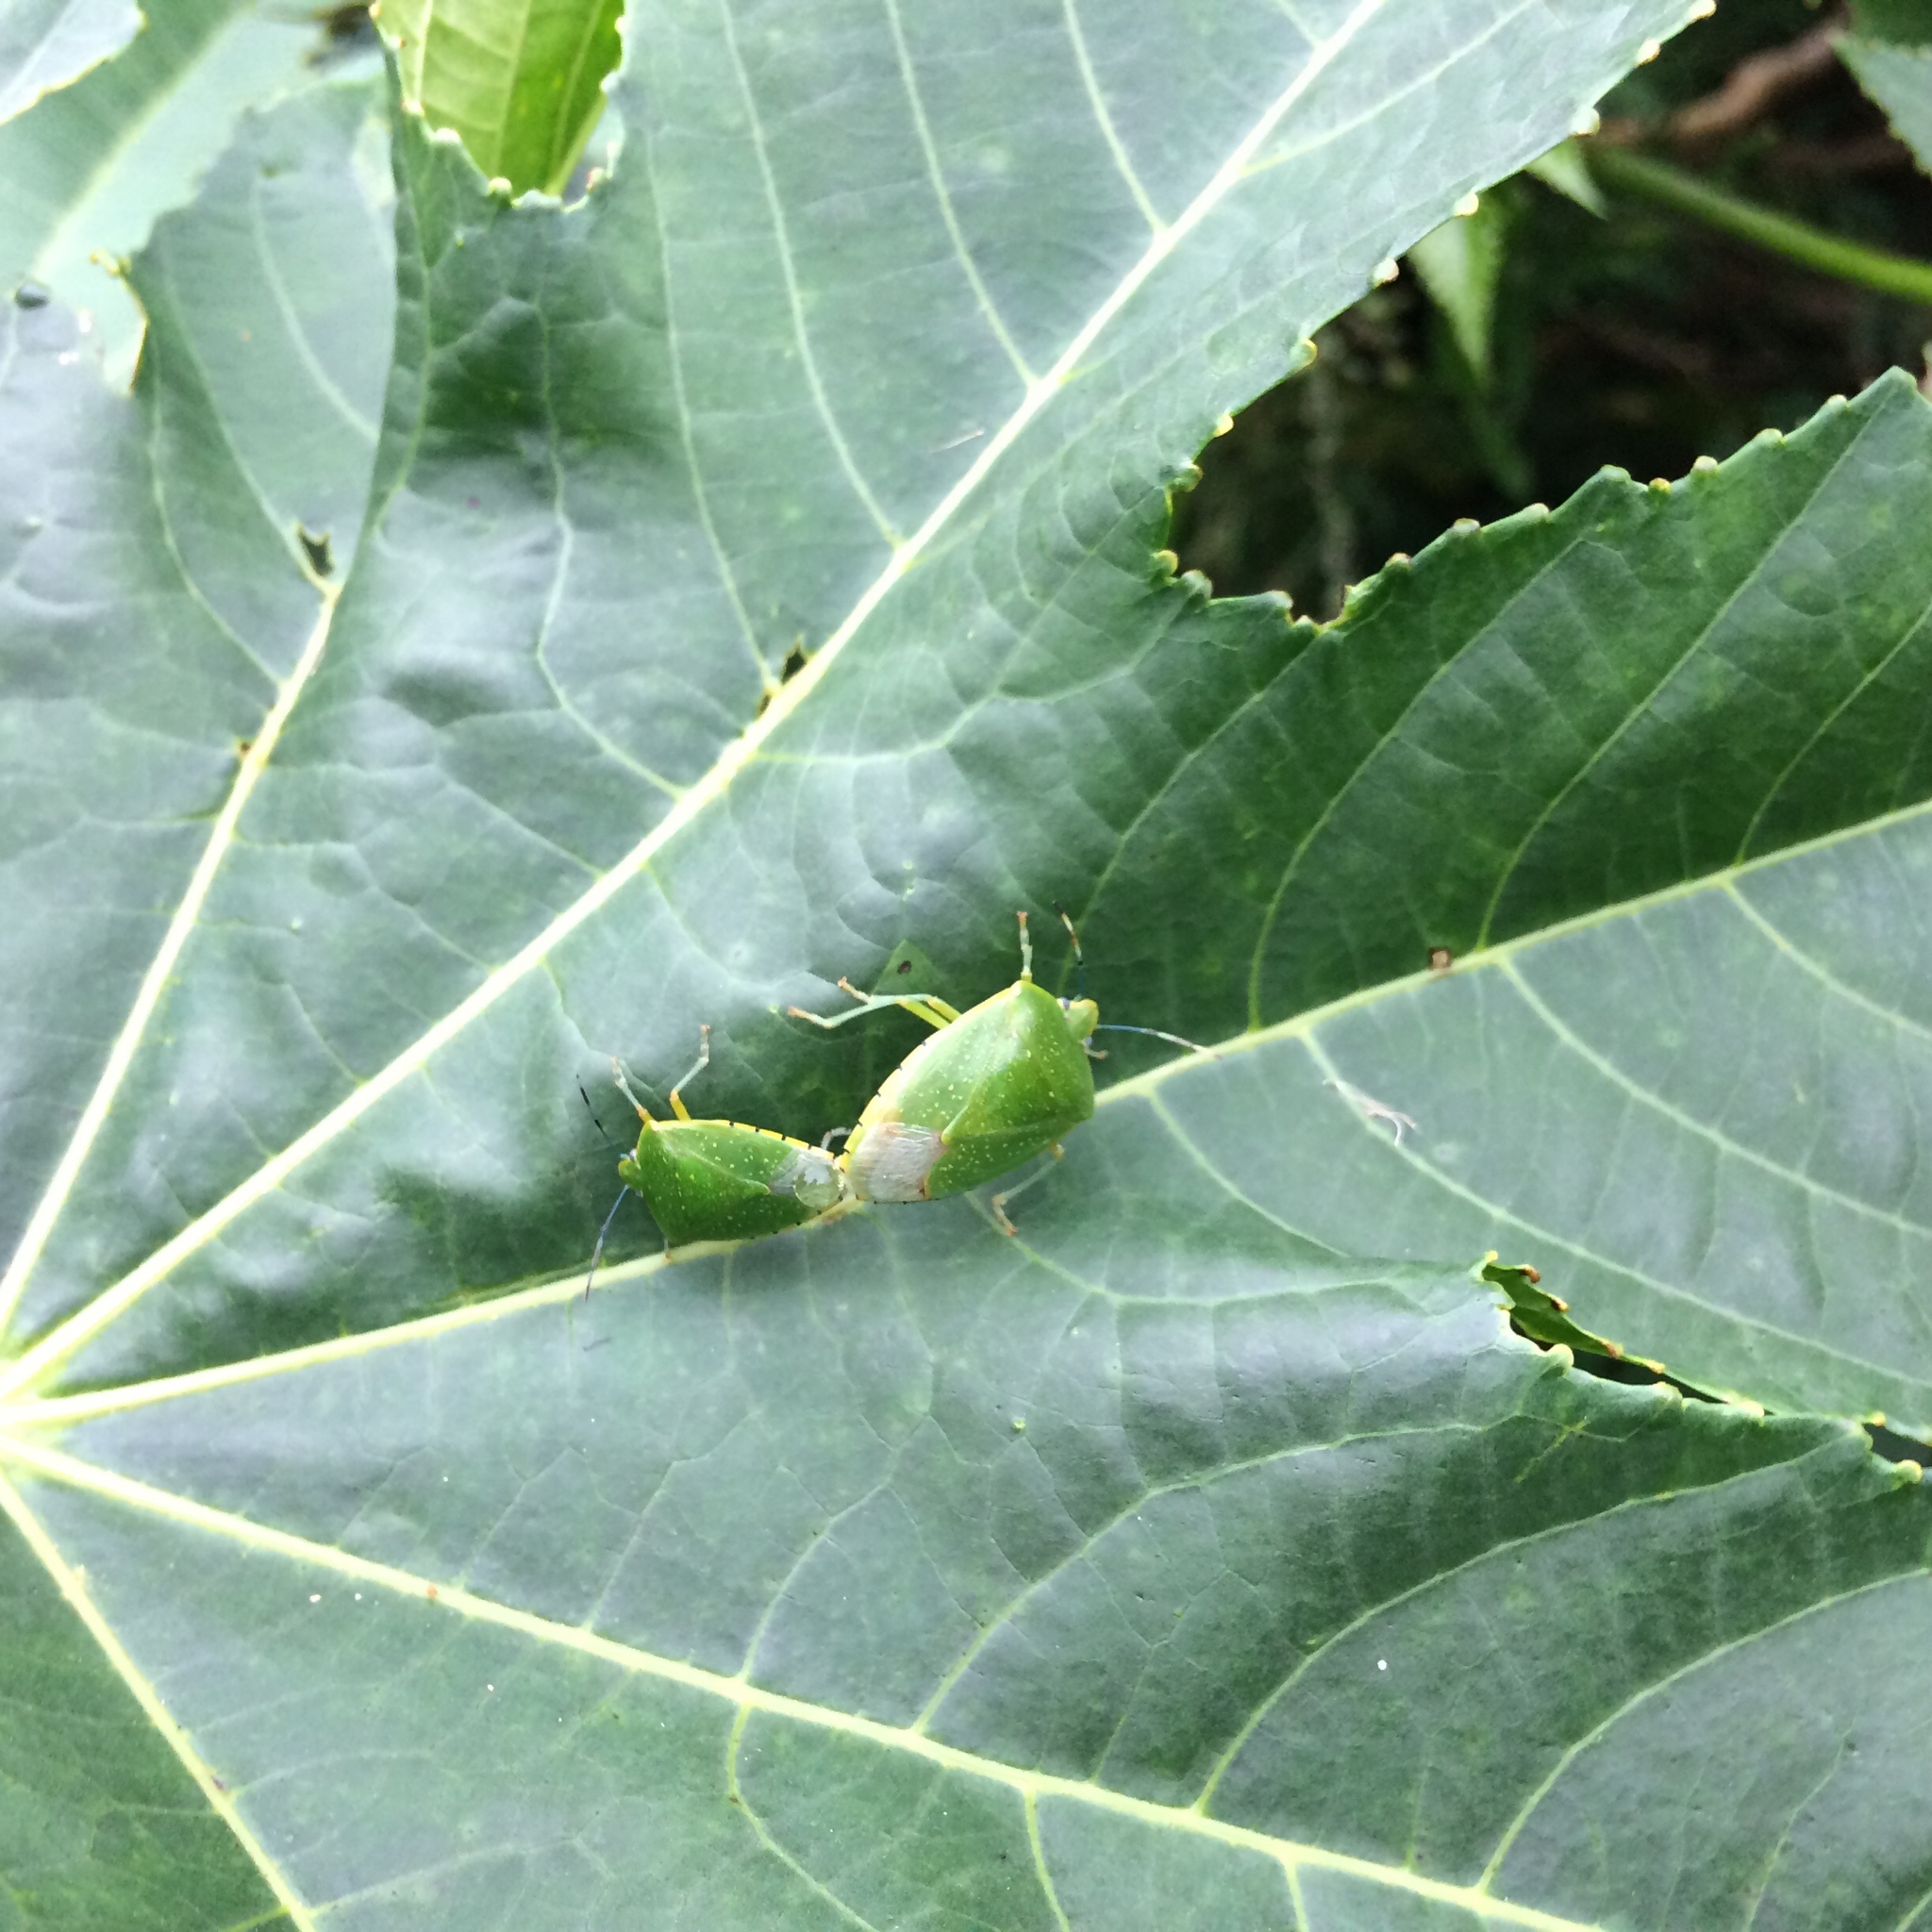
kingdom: Animalia
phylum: Arthropoda
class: Insecta
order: Hemiptera
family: Pentatomidae
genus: Chinavia
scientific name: Chinavia
